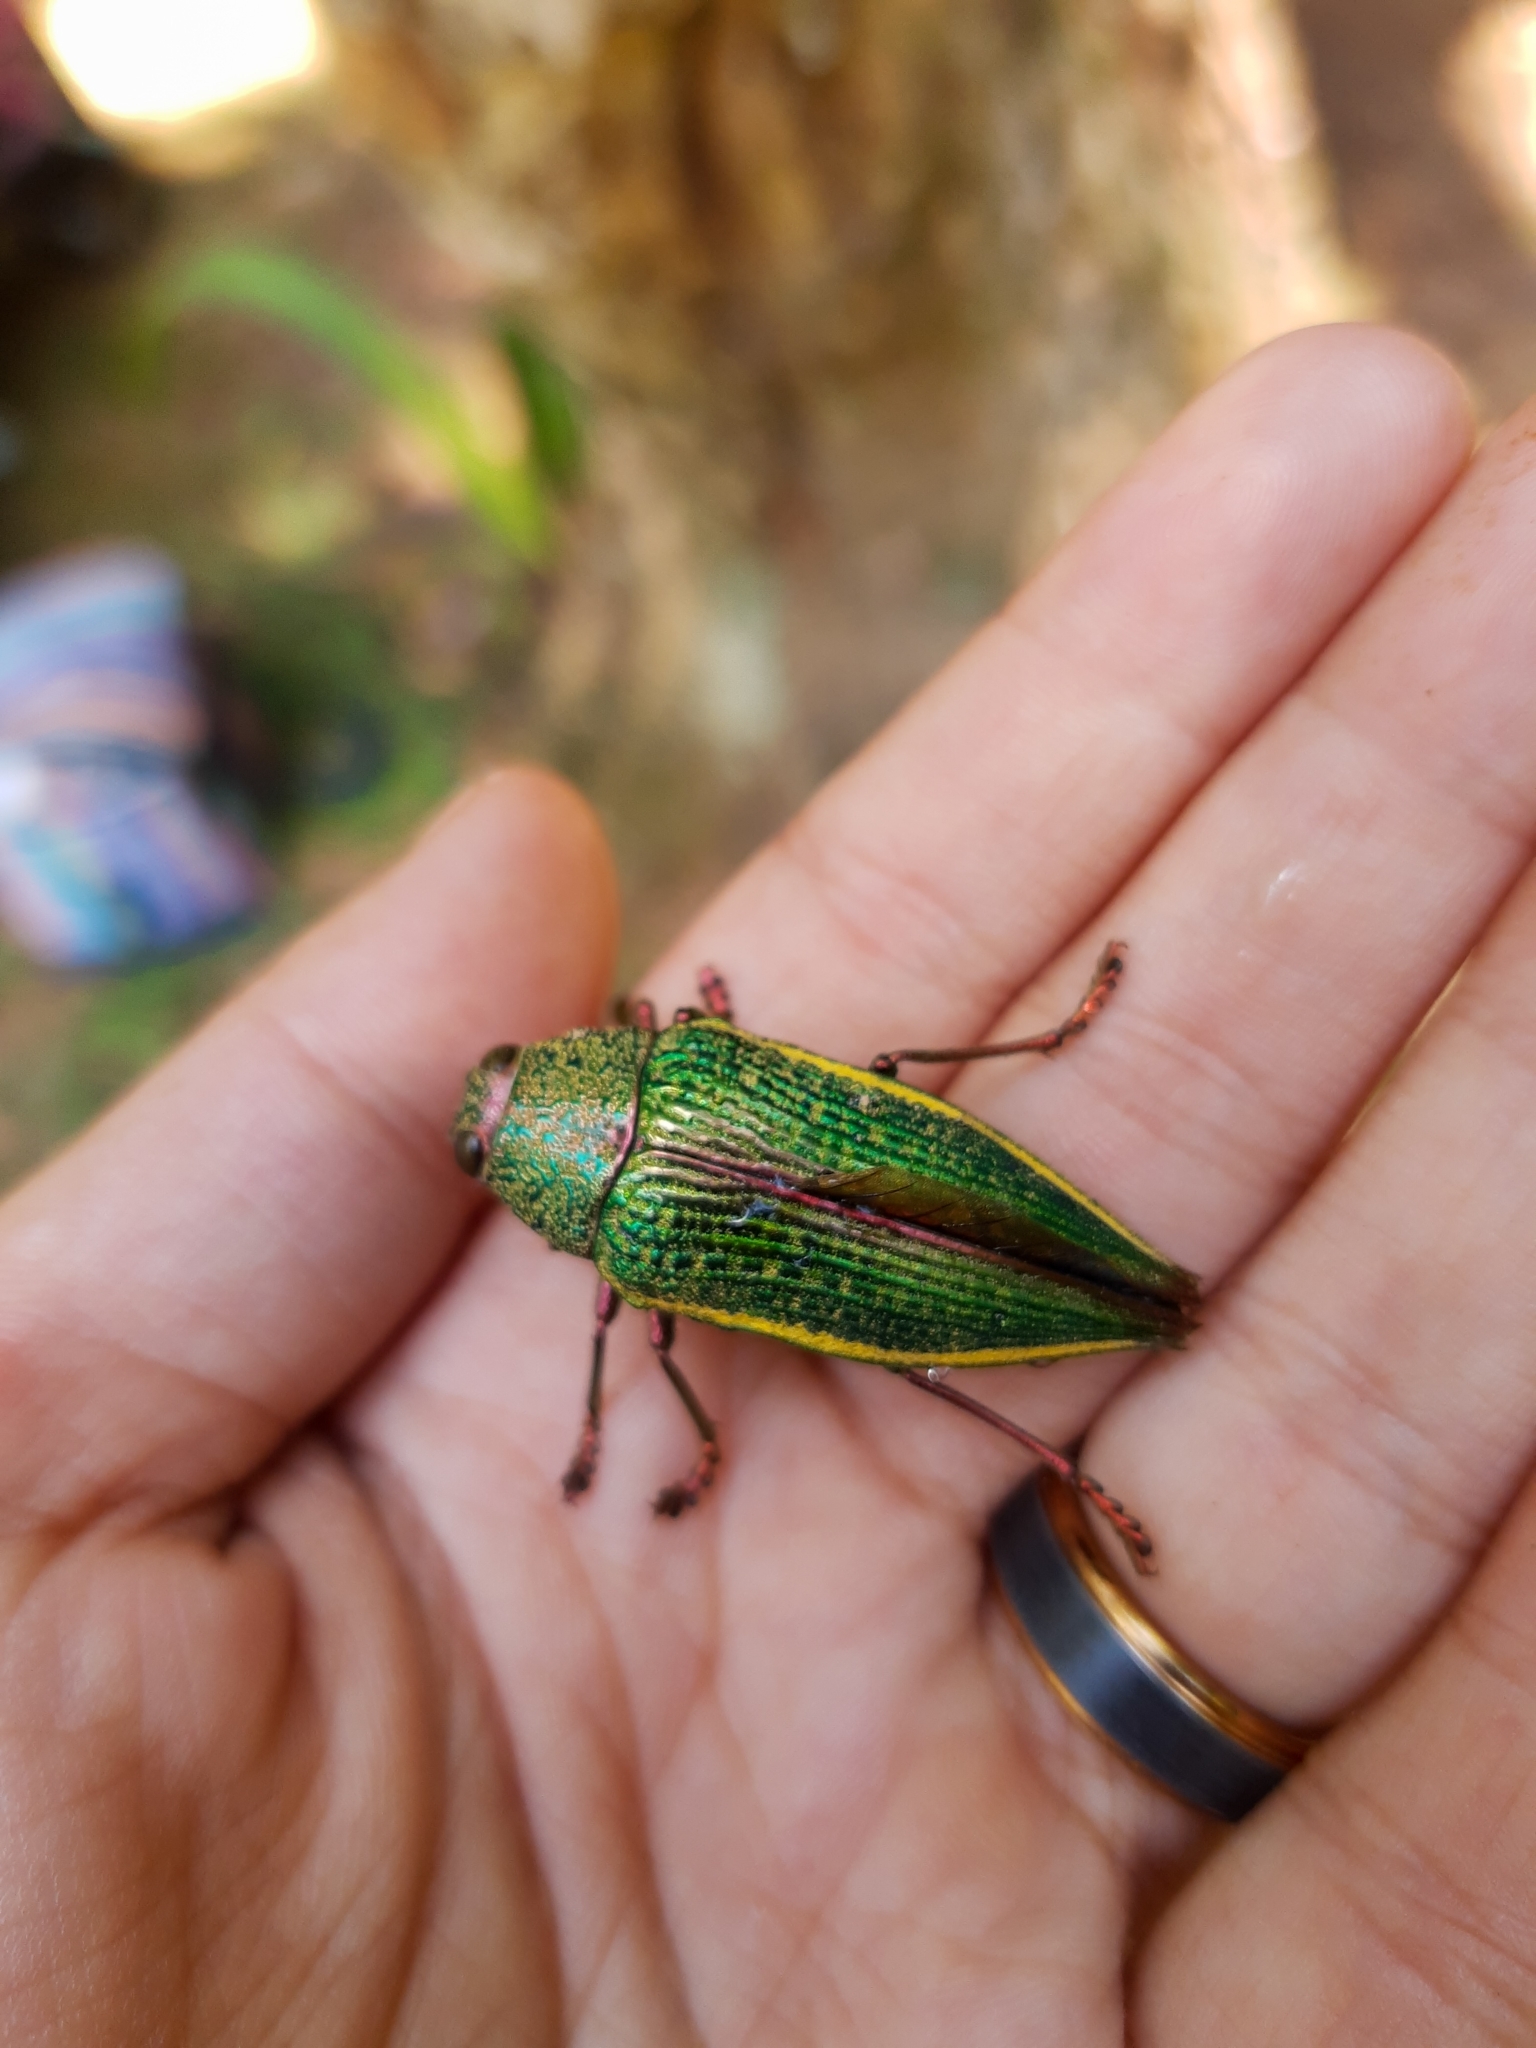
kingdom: Animalia
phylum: Arthropoda
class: Insecta
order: Coleoptera
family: Buprestidae
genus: Psiloptera
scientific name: Psiloptera attenuata
